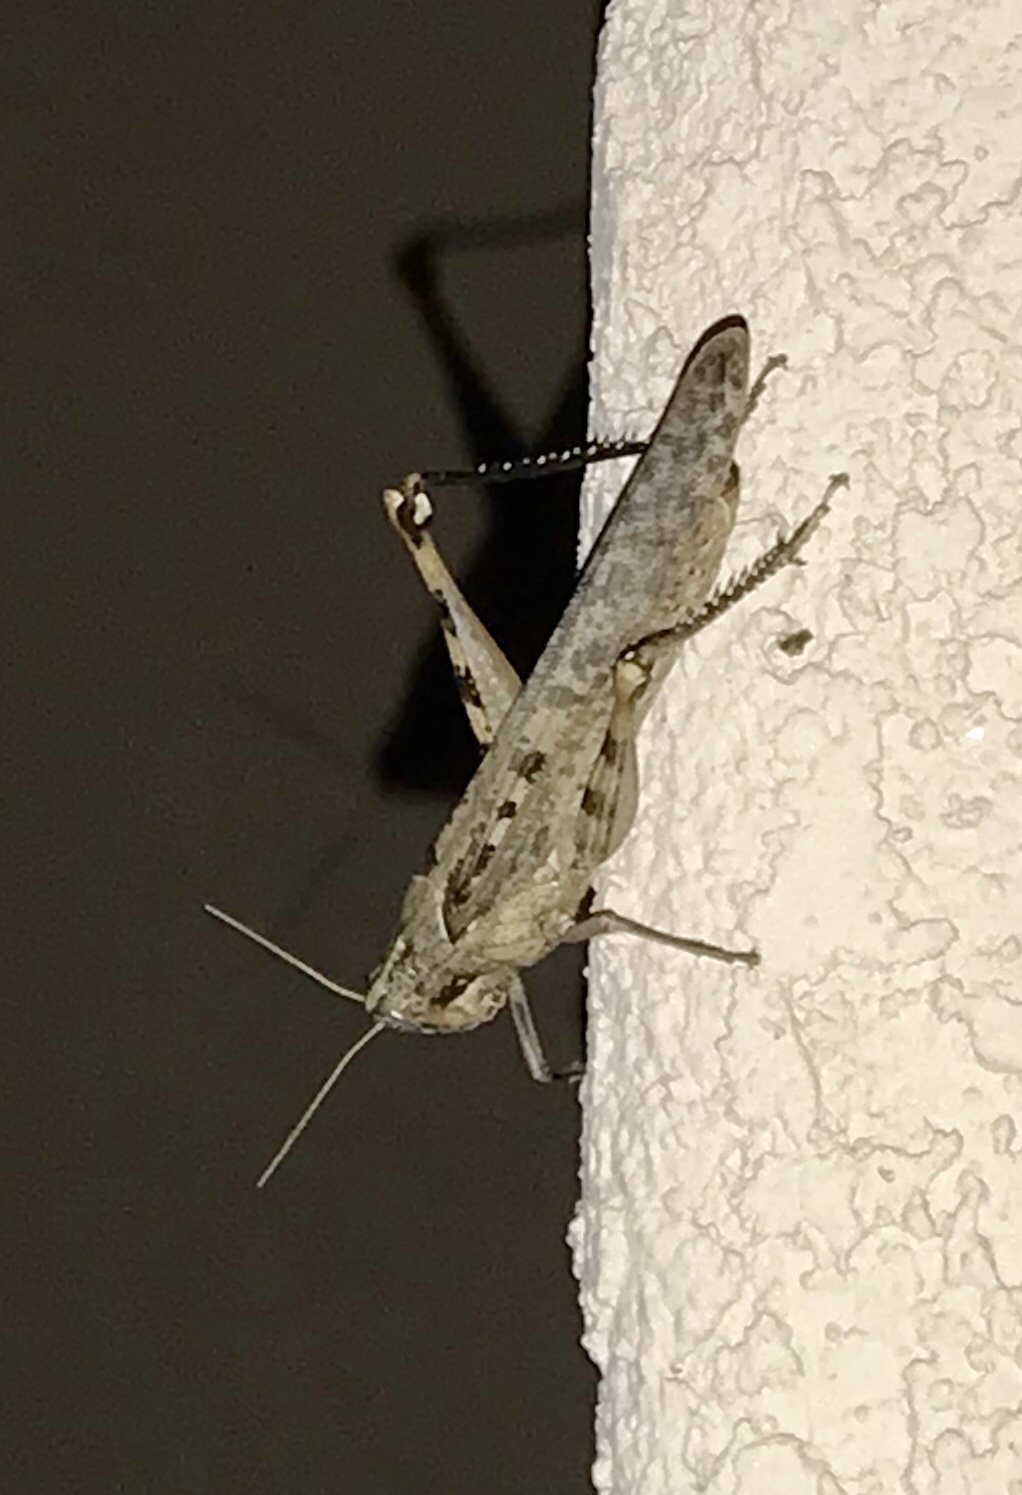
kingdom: Animalia
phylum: Arthropoda
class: Insecta
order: Orthoptera
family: Acrididae
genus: Schistocerca
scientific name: Schistocerca nitens
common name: Vagrant grasshopper
